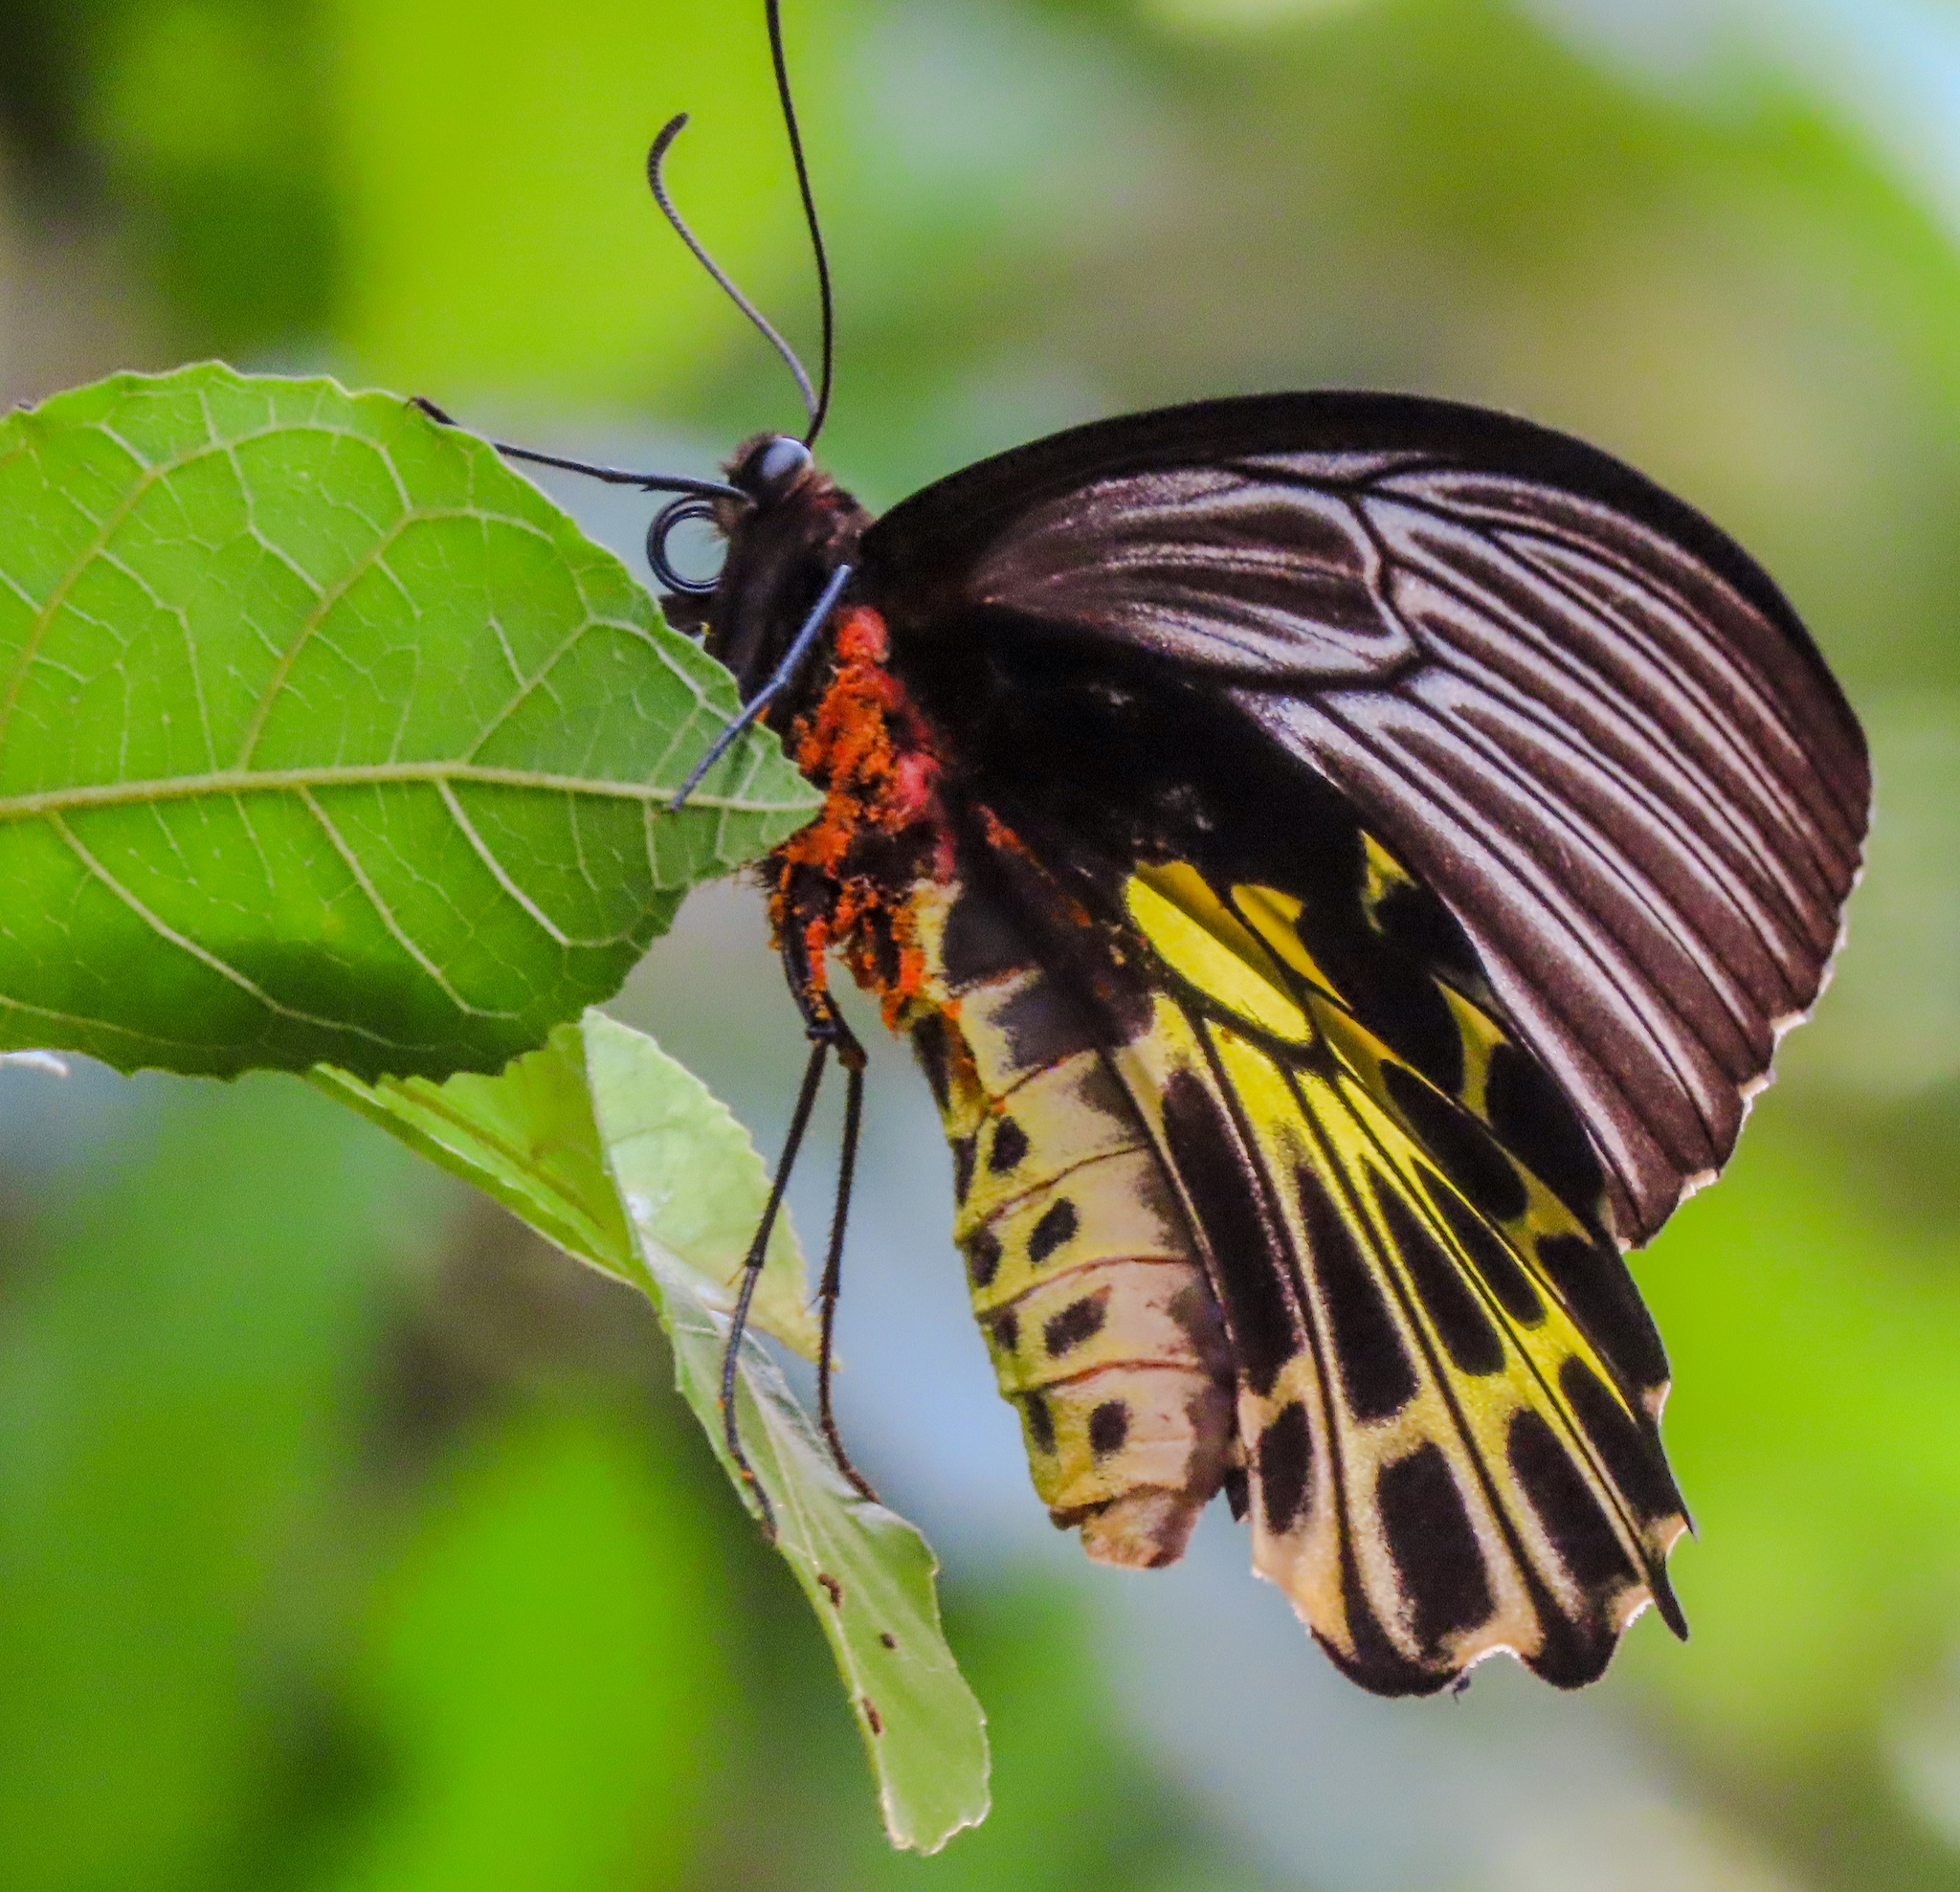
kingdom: Animalia
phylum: Arthropoda
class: Insecta
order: Lepidoptera
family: Papilionidae
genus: Troides
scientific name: Troides aeacus
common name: Golden birdwing
